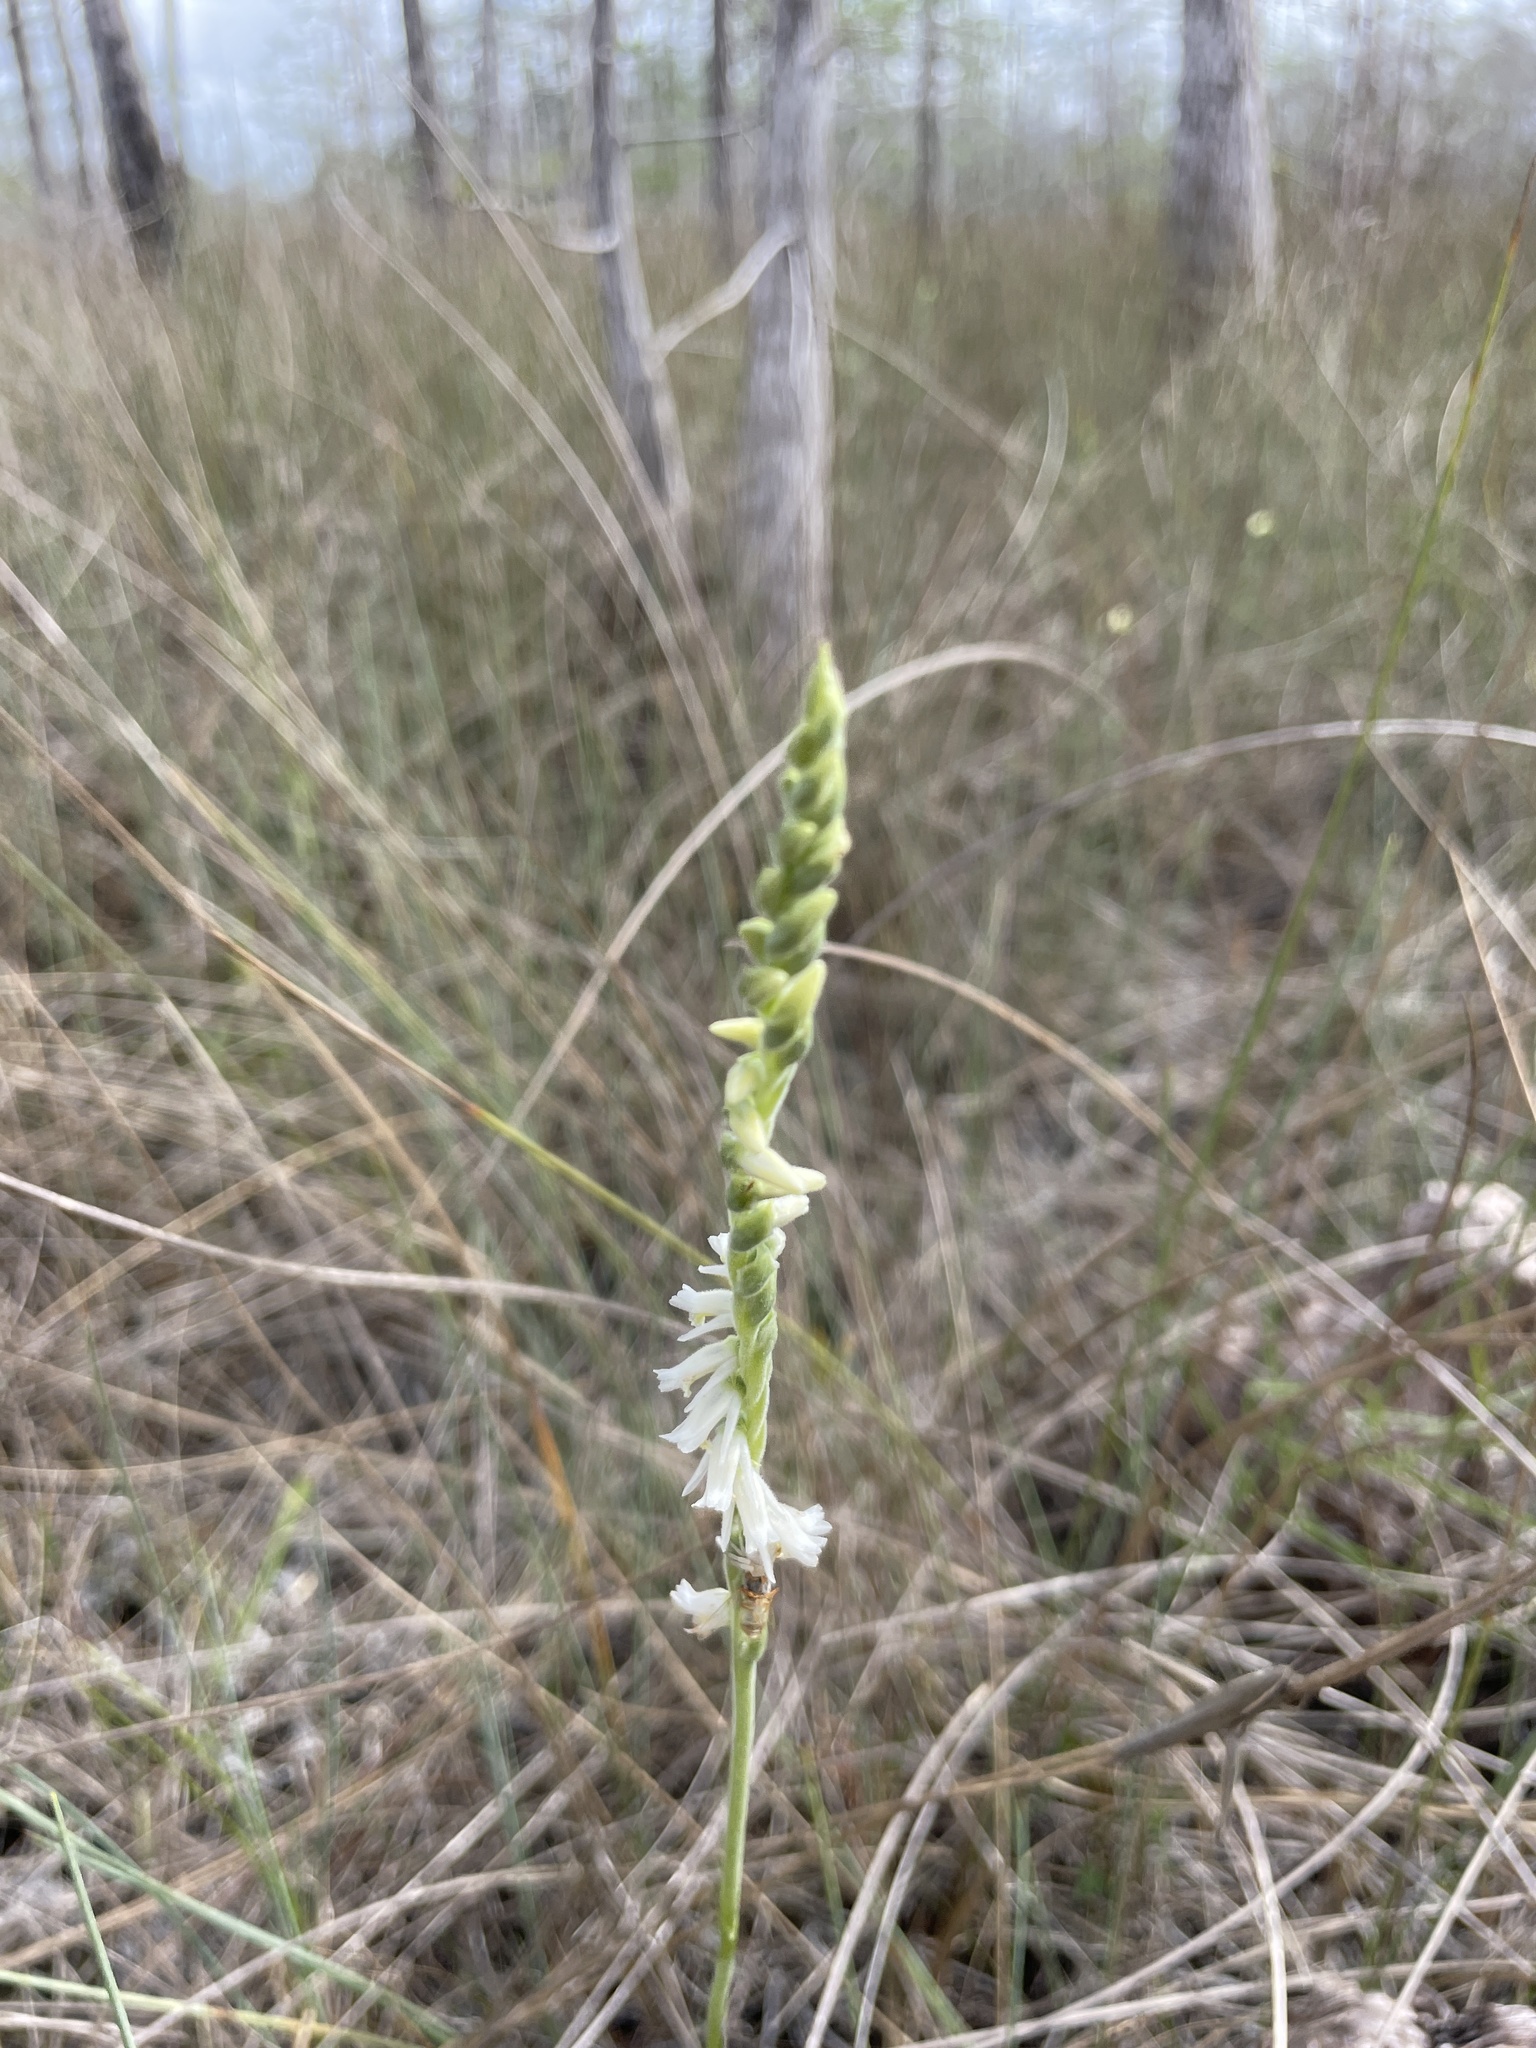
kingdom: Plantae
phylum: Tracheophyta
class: Liliopsida
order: Asparagales
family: Orchidaceae
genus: Spiranthes
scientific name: Spiranthes vernalis
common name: Spring ladies'-tresses
